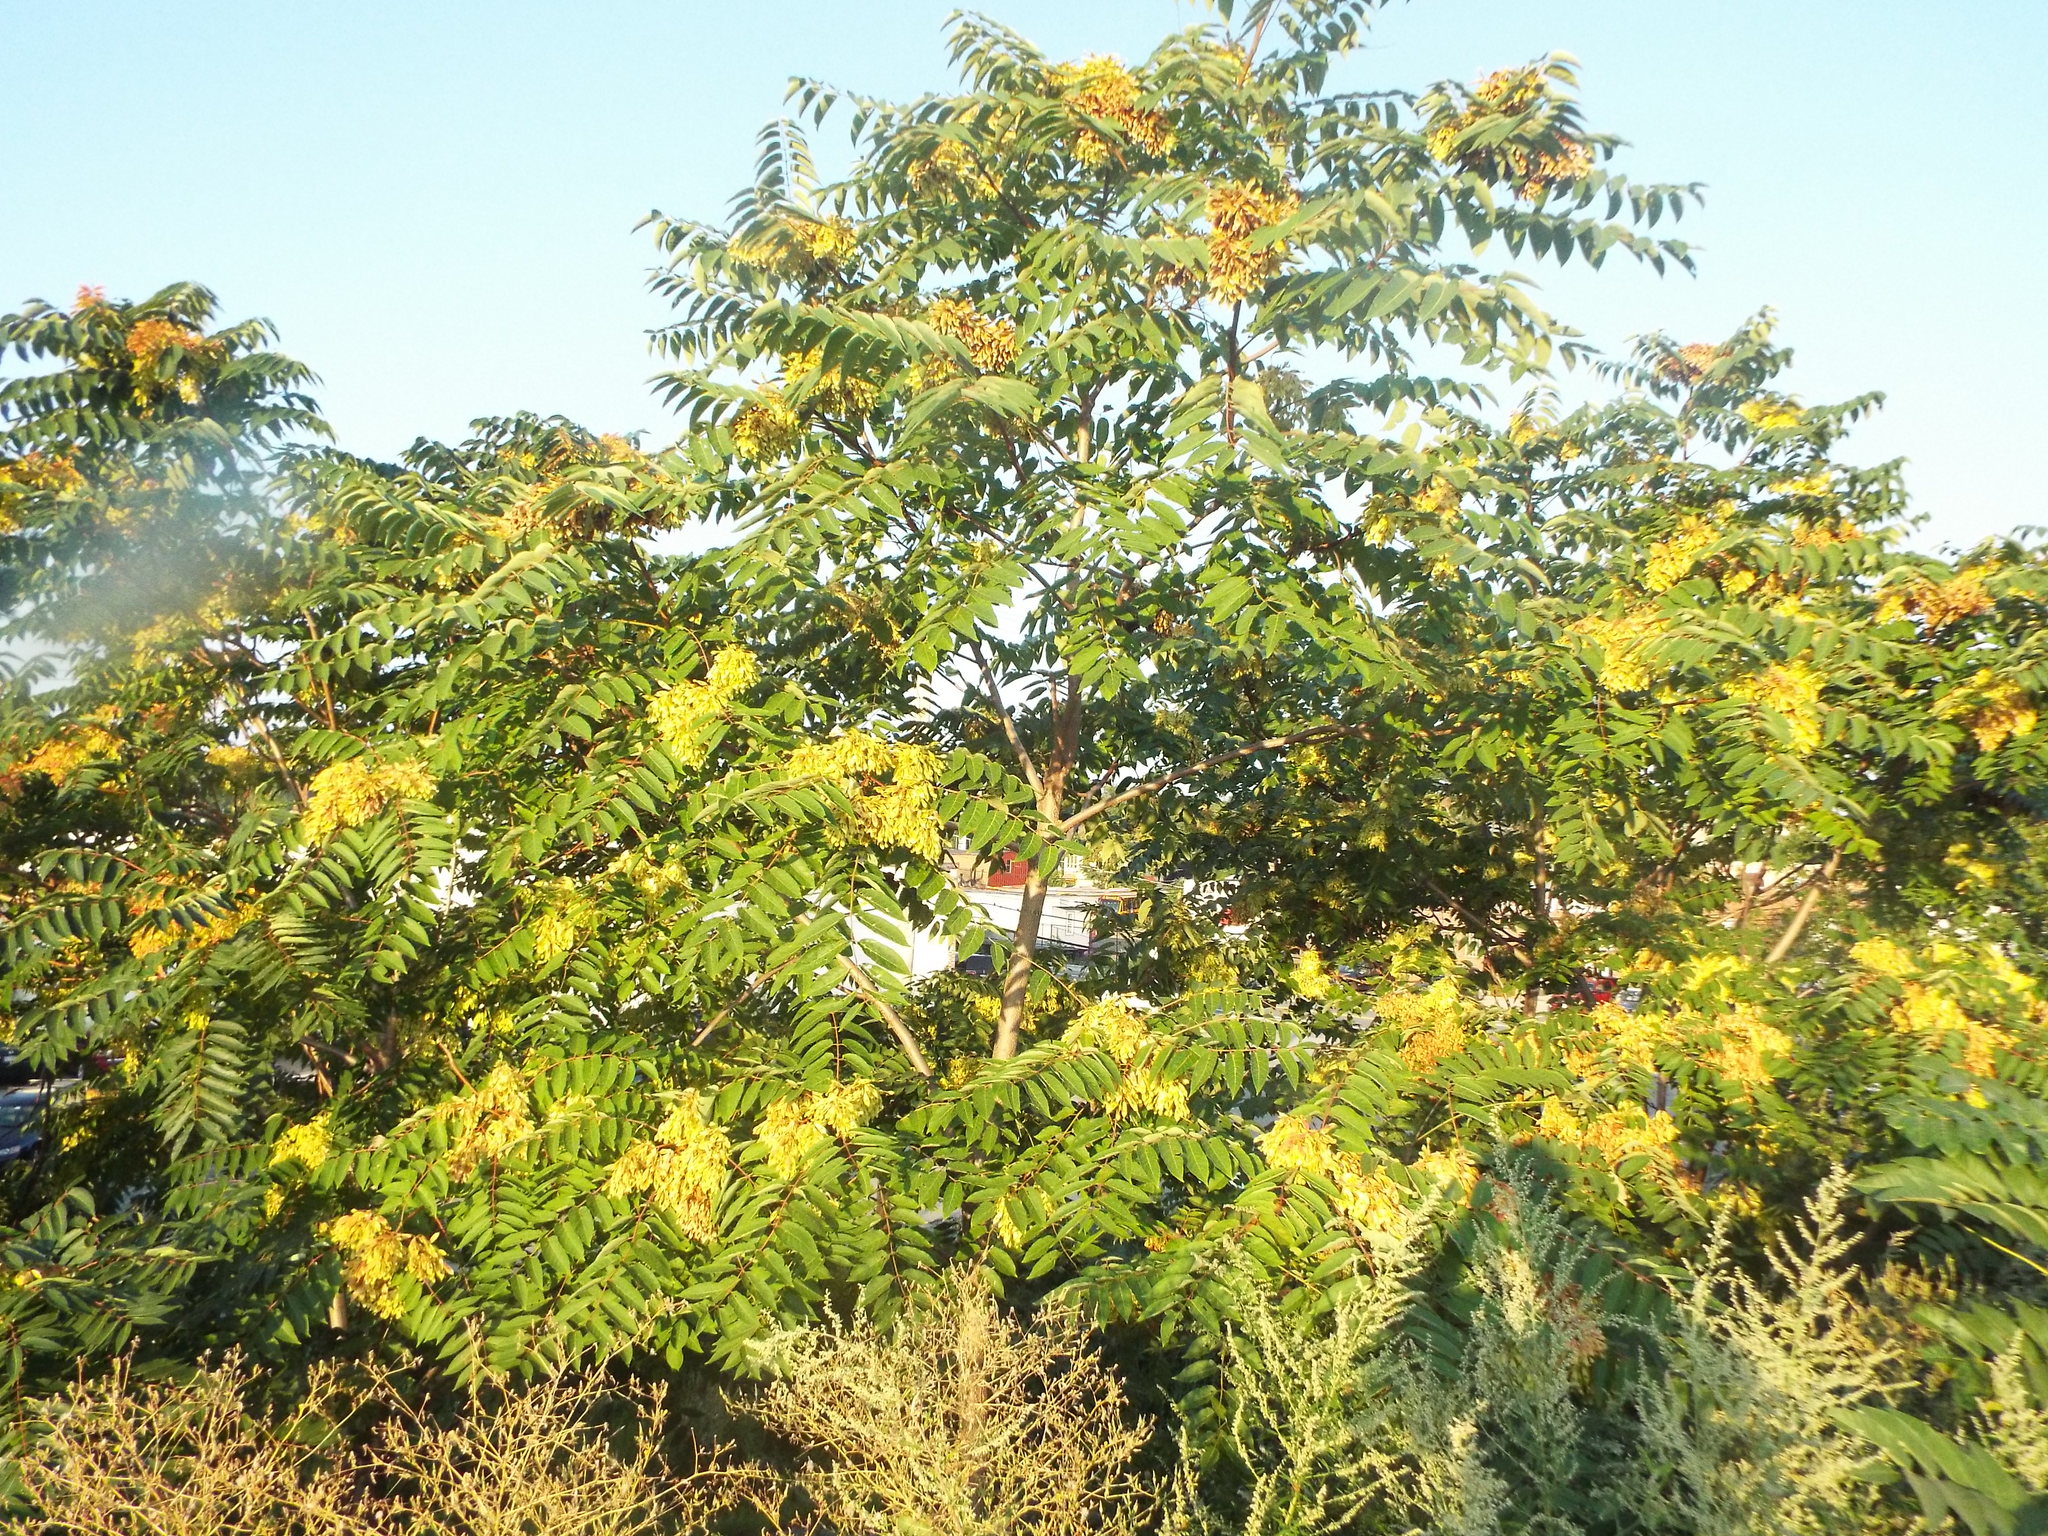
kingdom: Plantae
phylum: Tracheophyta
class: Magnoliopsida
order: Sapindales
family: Simaroubaceae
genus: Ailanthus
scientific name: Ailanthus altissima
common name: Tree-of-heaven
